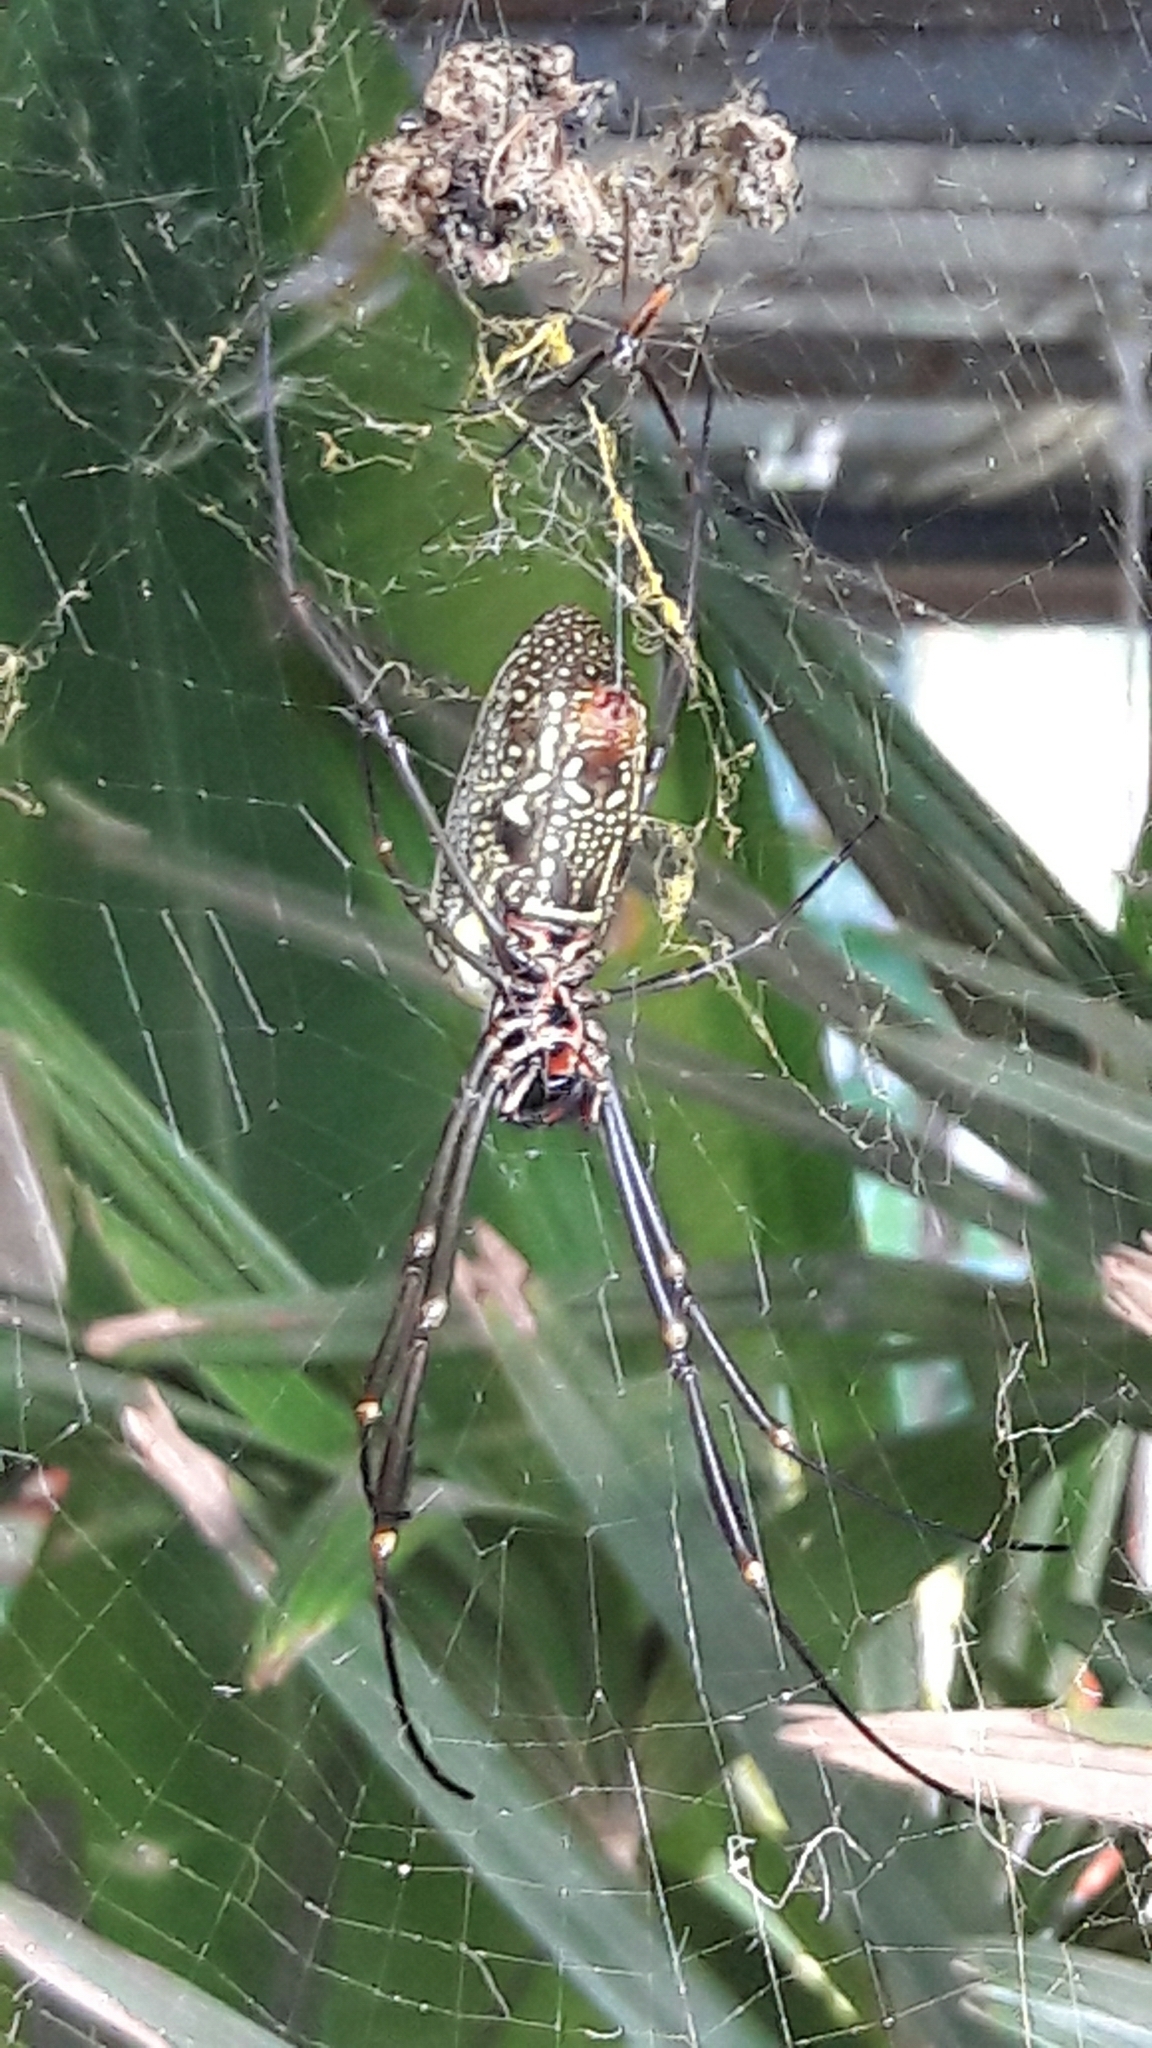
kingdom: Animalia
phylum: Arthropoda
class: Arachnida
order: Araneae
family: Araneidae
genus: Trichonephila
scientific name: Trichonephila clavipes
